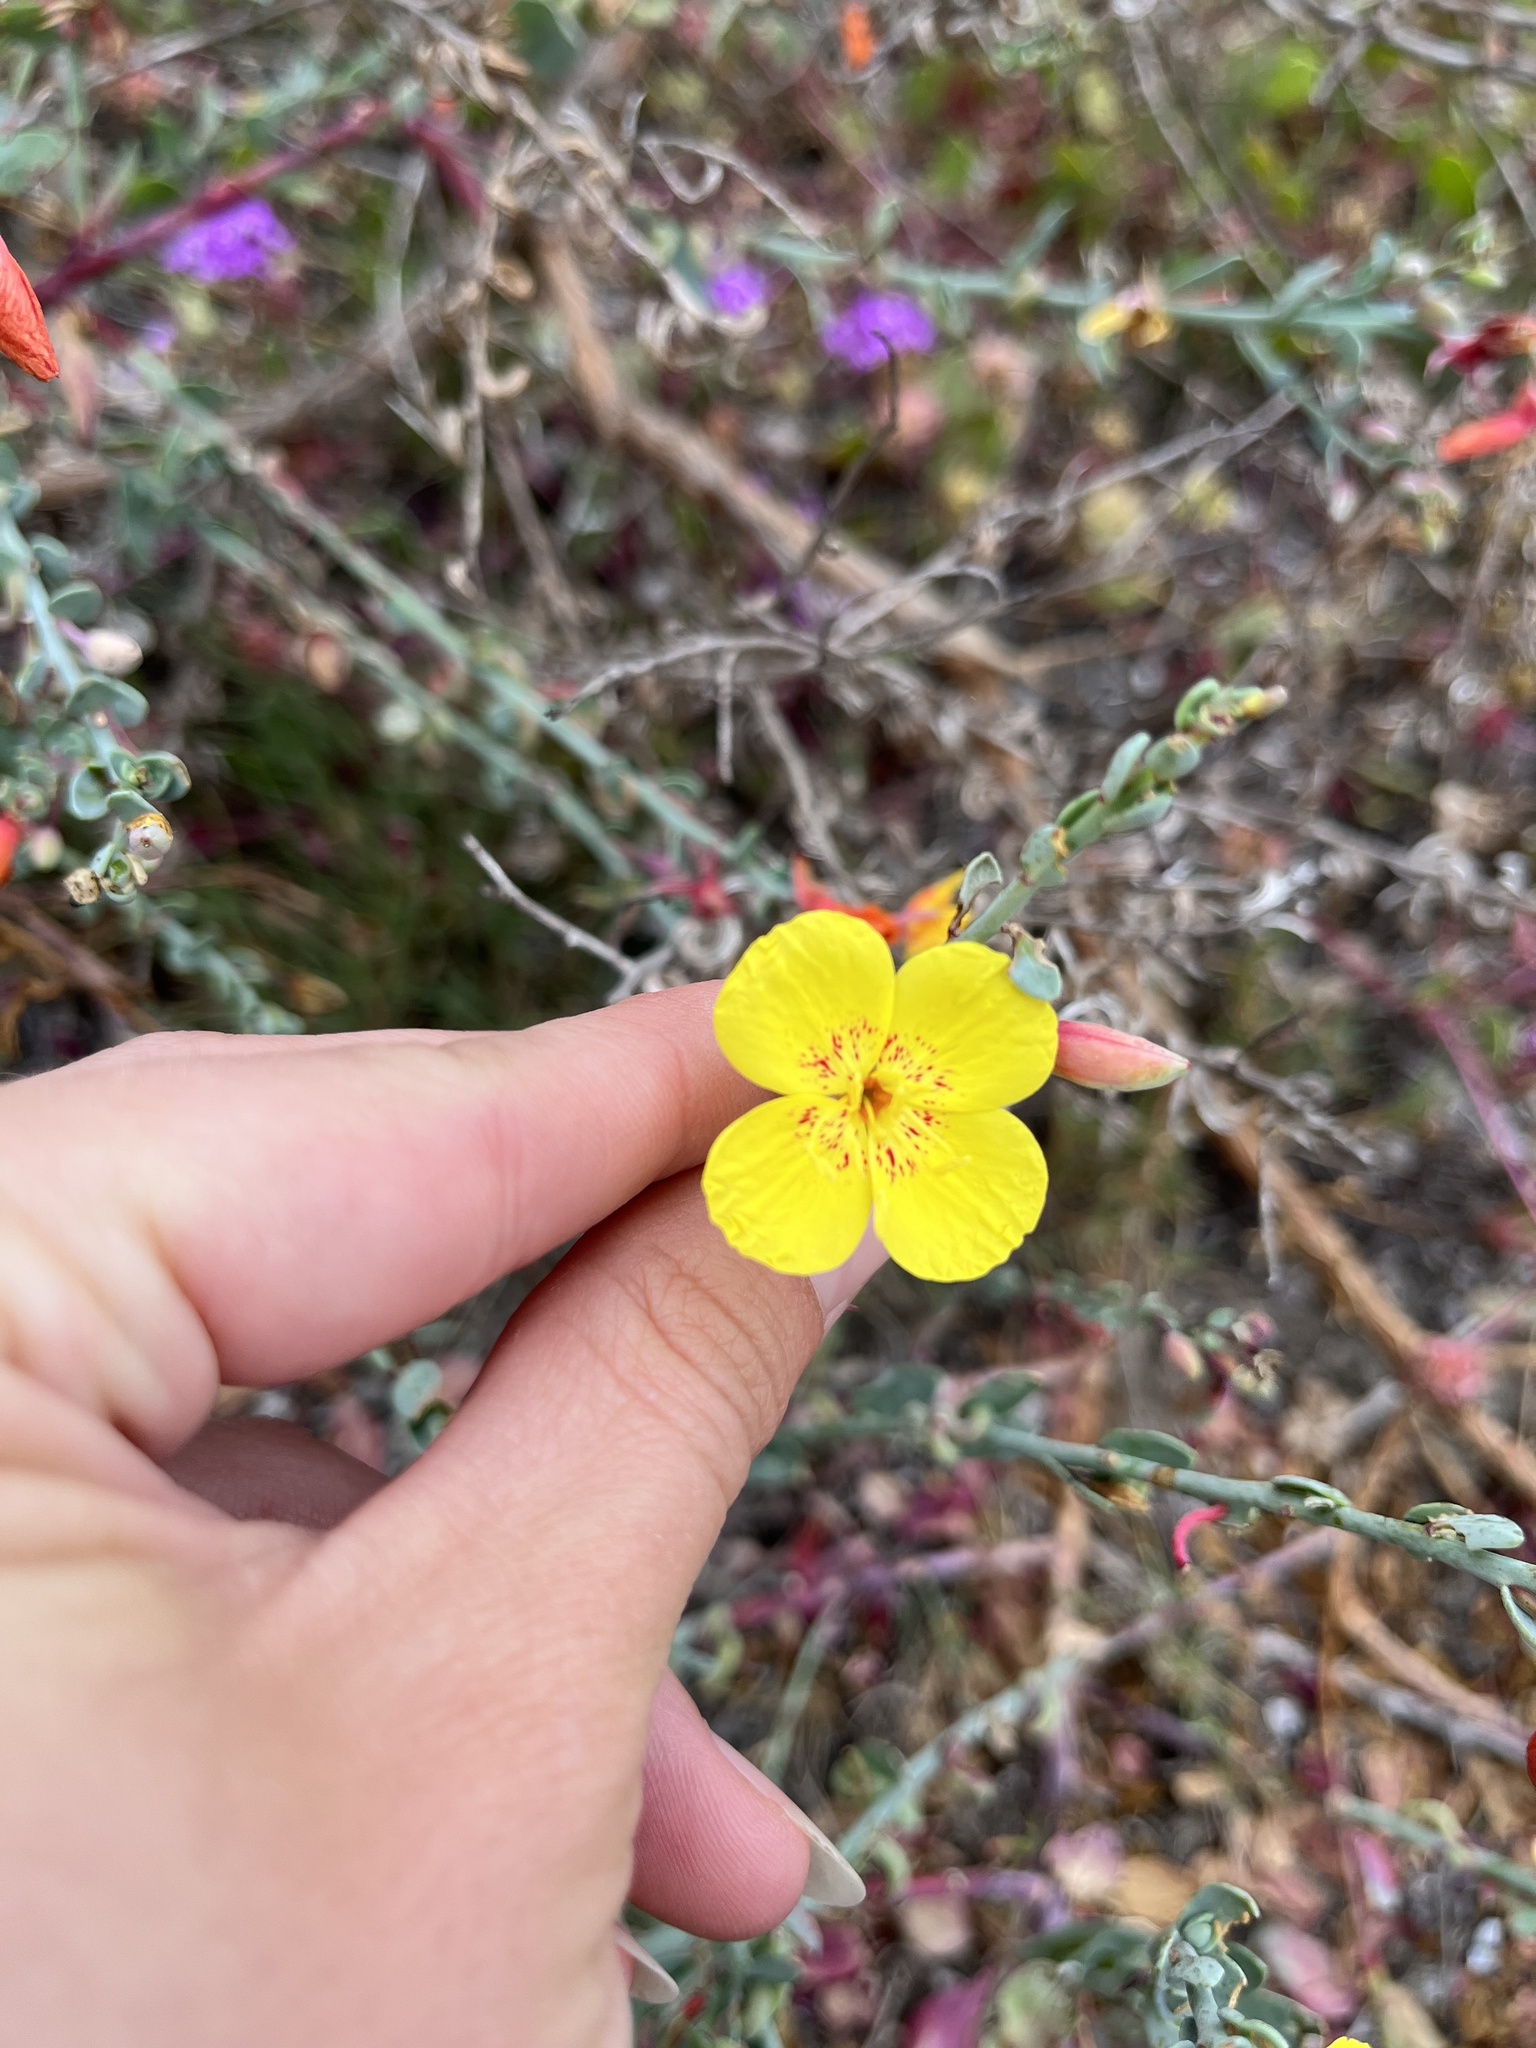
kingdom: Plantae
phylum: Tracheophyta
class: Magnoliopsida
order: Myrtales
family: Onagraceae
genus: Eulobus
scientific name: Eulobus crassifolius
